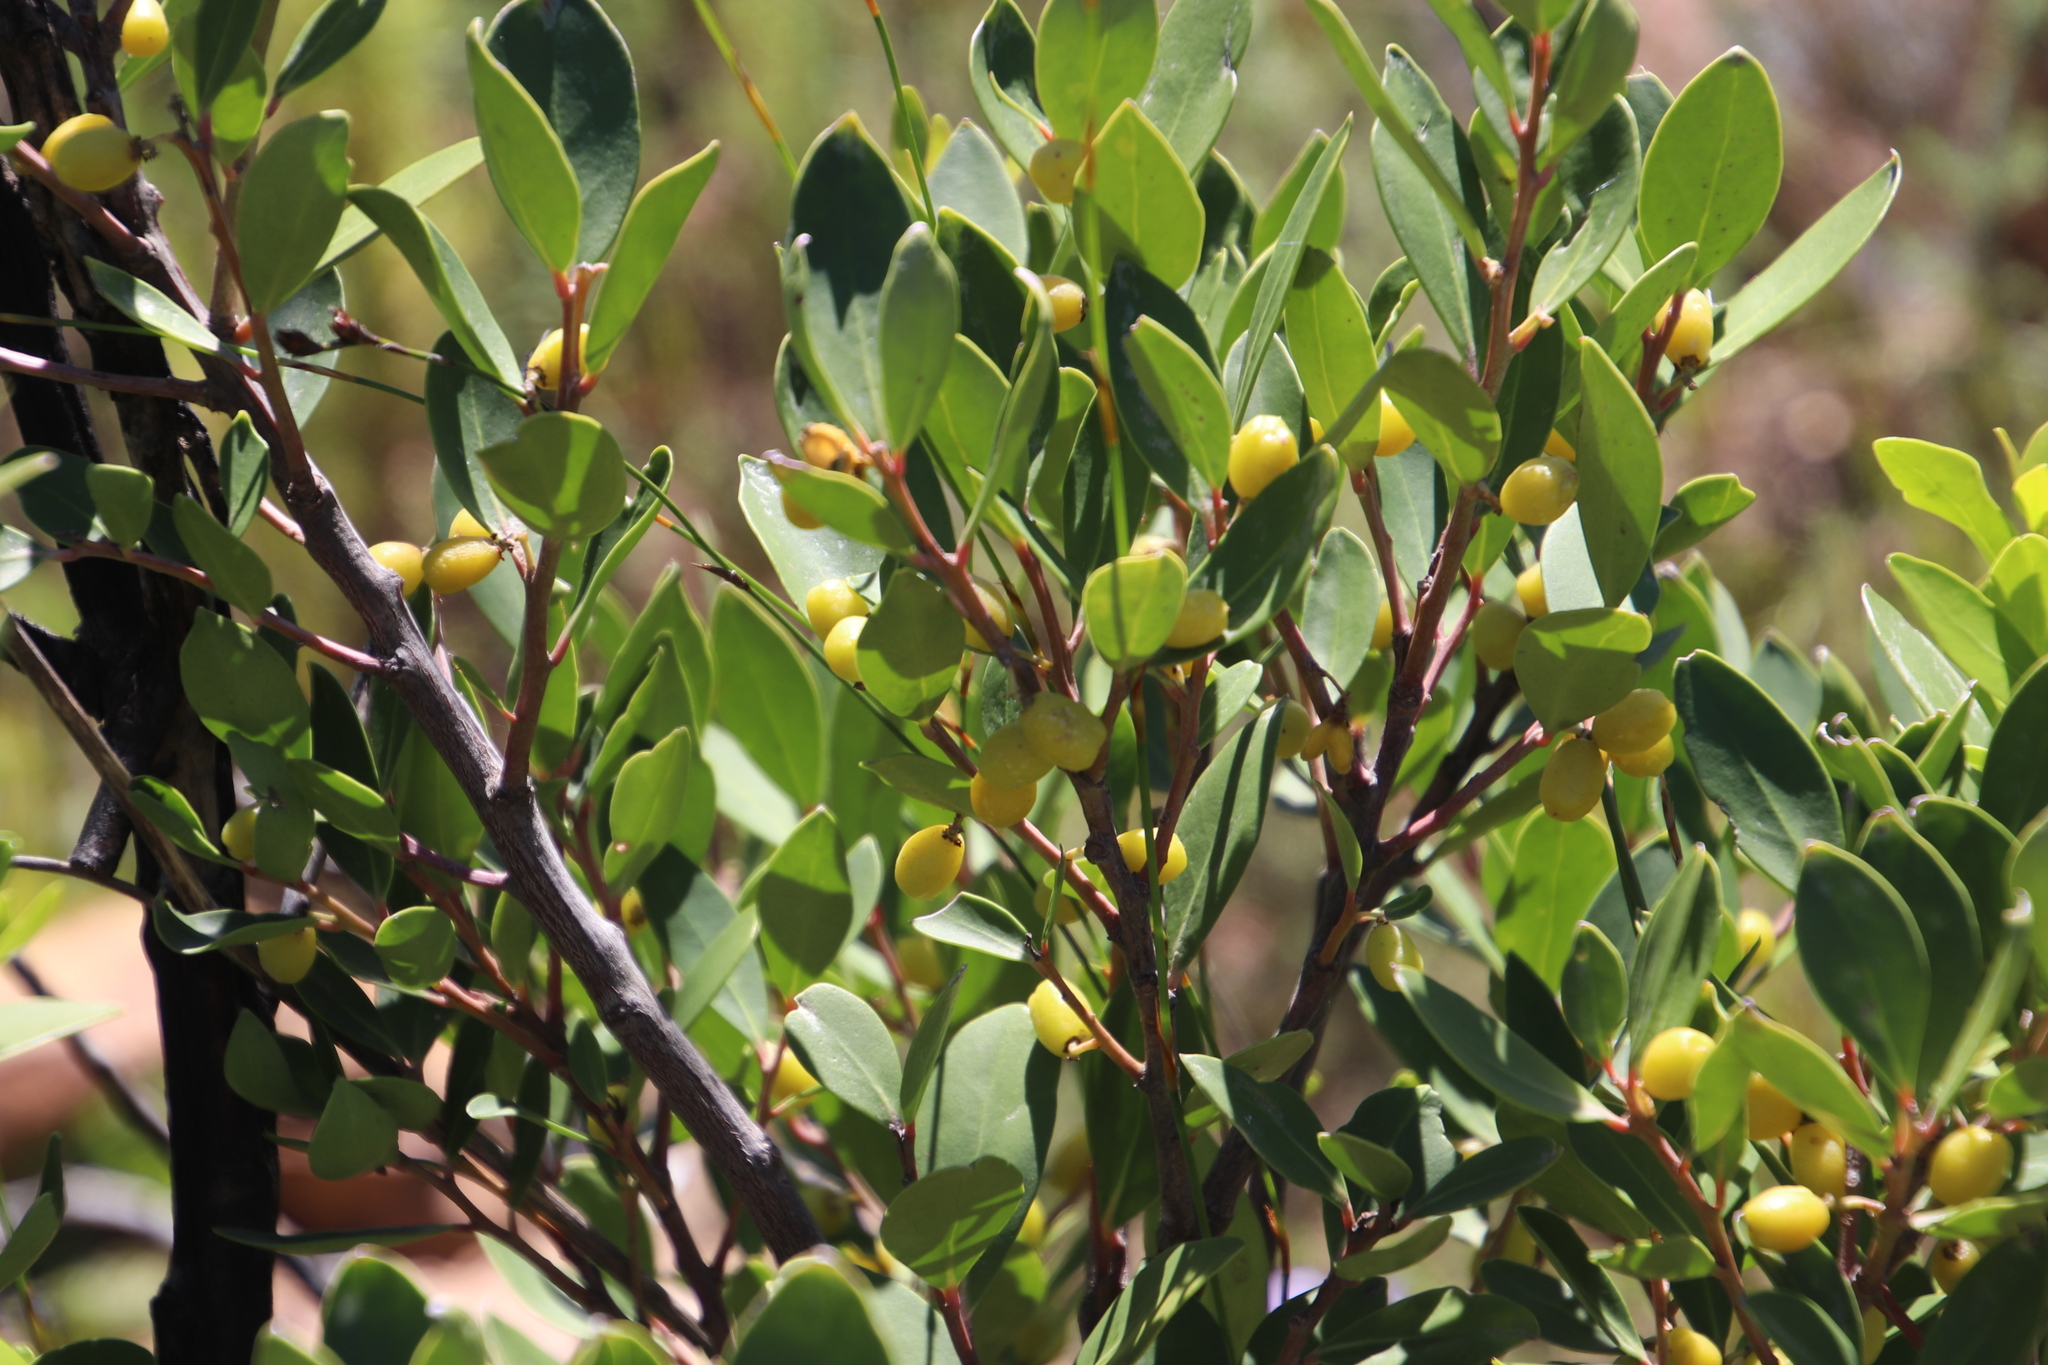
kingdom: Plantae
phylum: Tracheophyta
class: Magnoliopsida
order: Celastrales
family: Celastraceae
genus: Gymnosporia
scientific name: Gymnosporia laurina
